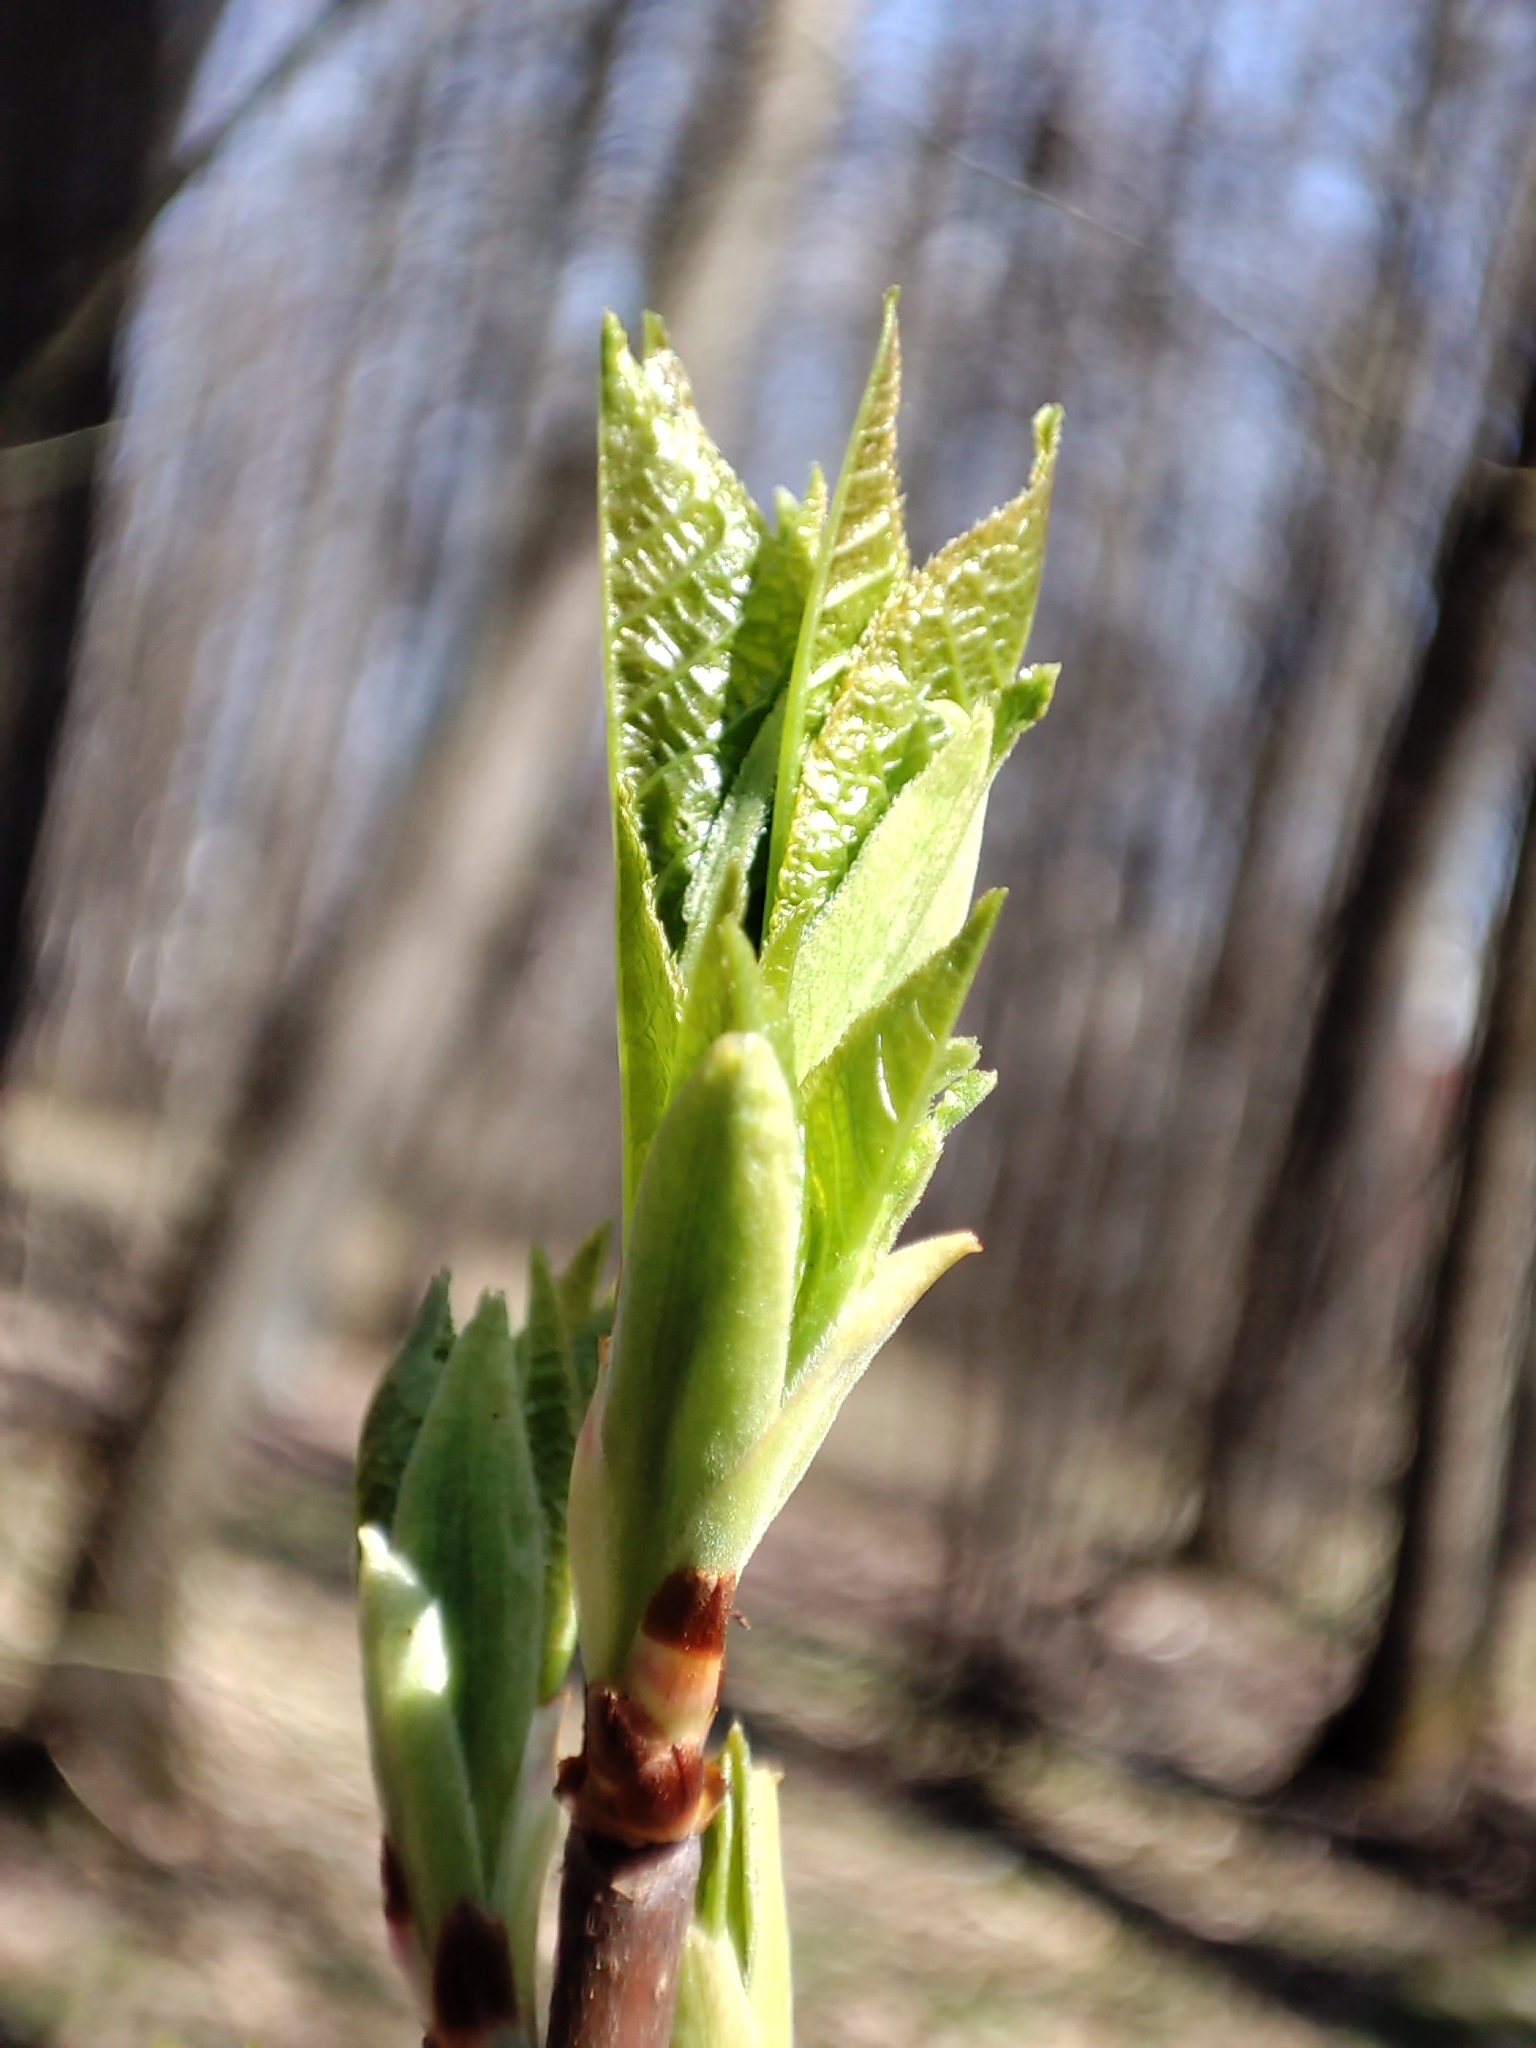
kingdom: Plantae
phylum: Tracheophyta
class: Magnoliopsida
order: Rosales
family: Rosaceae
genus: Prunus
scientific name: Prunus padus
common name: Bird cherry
